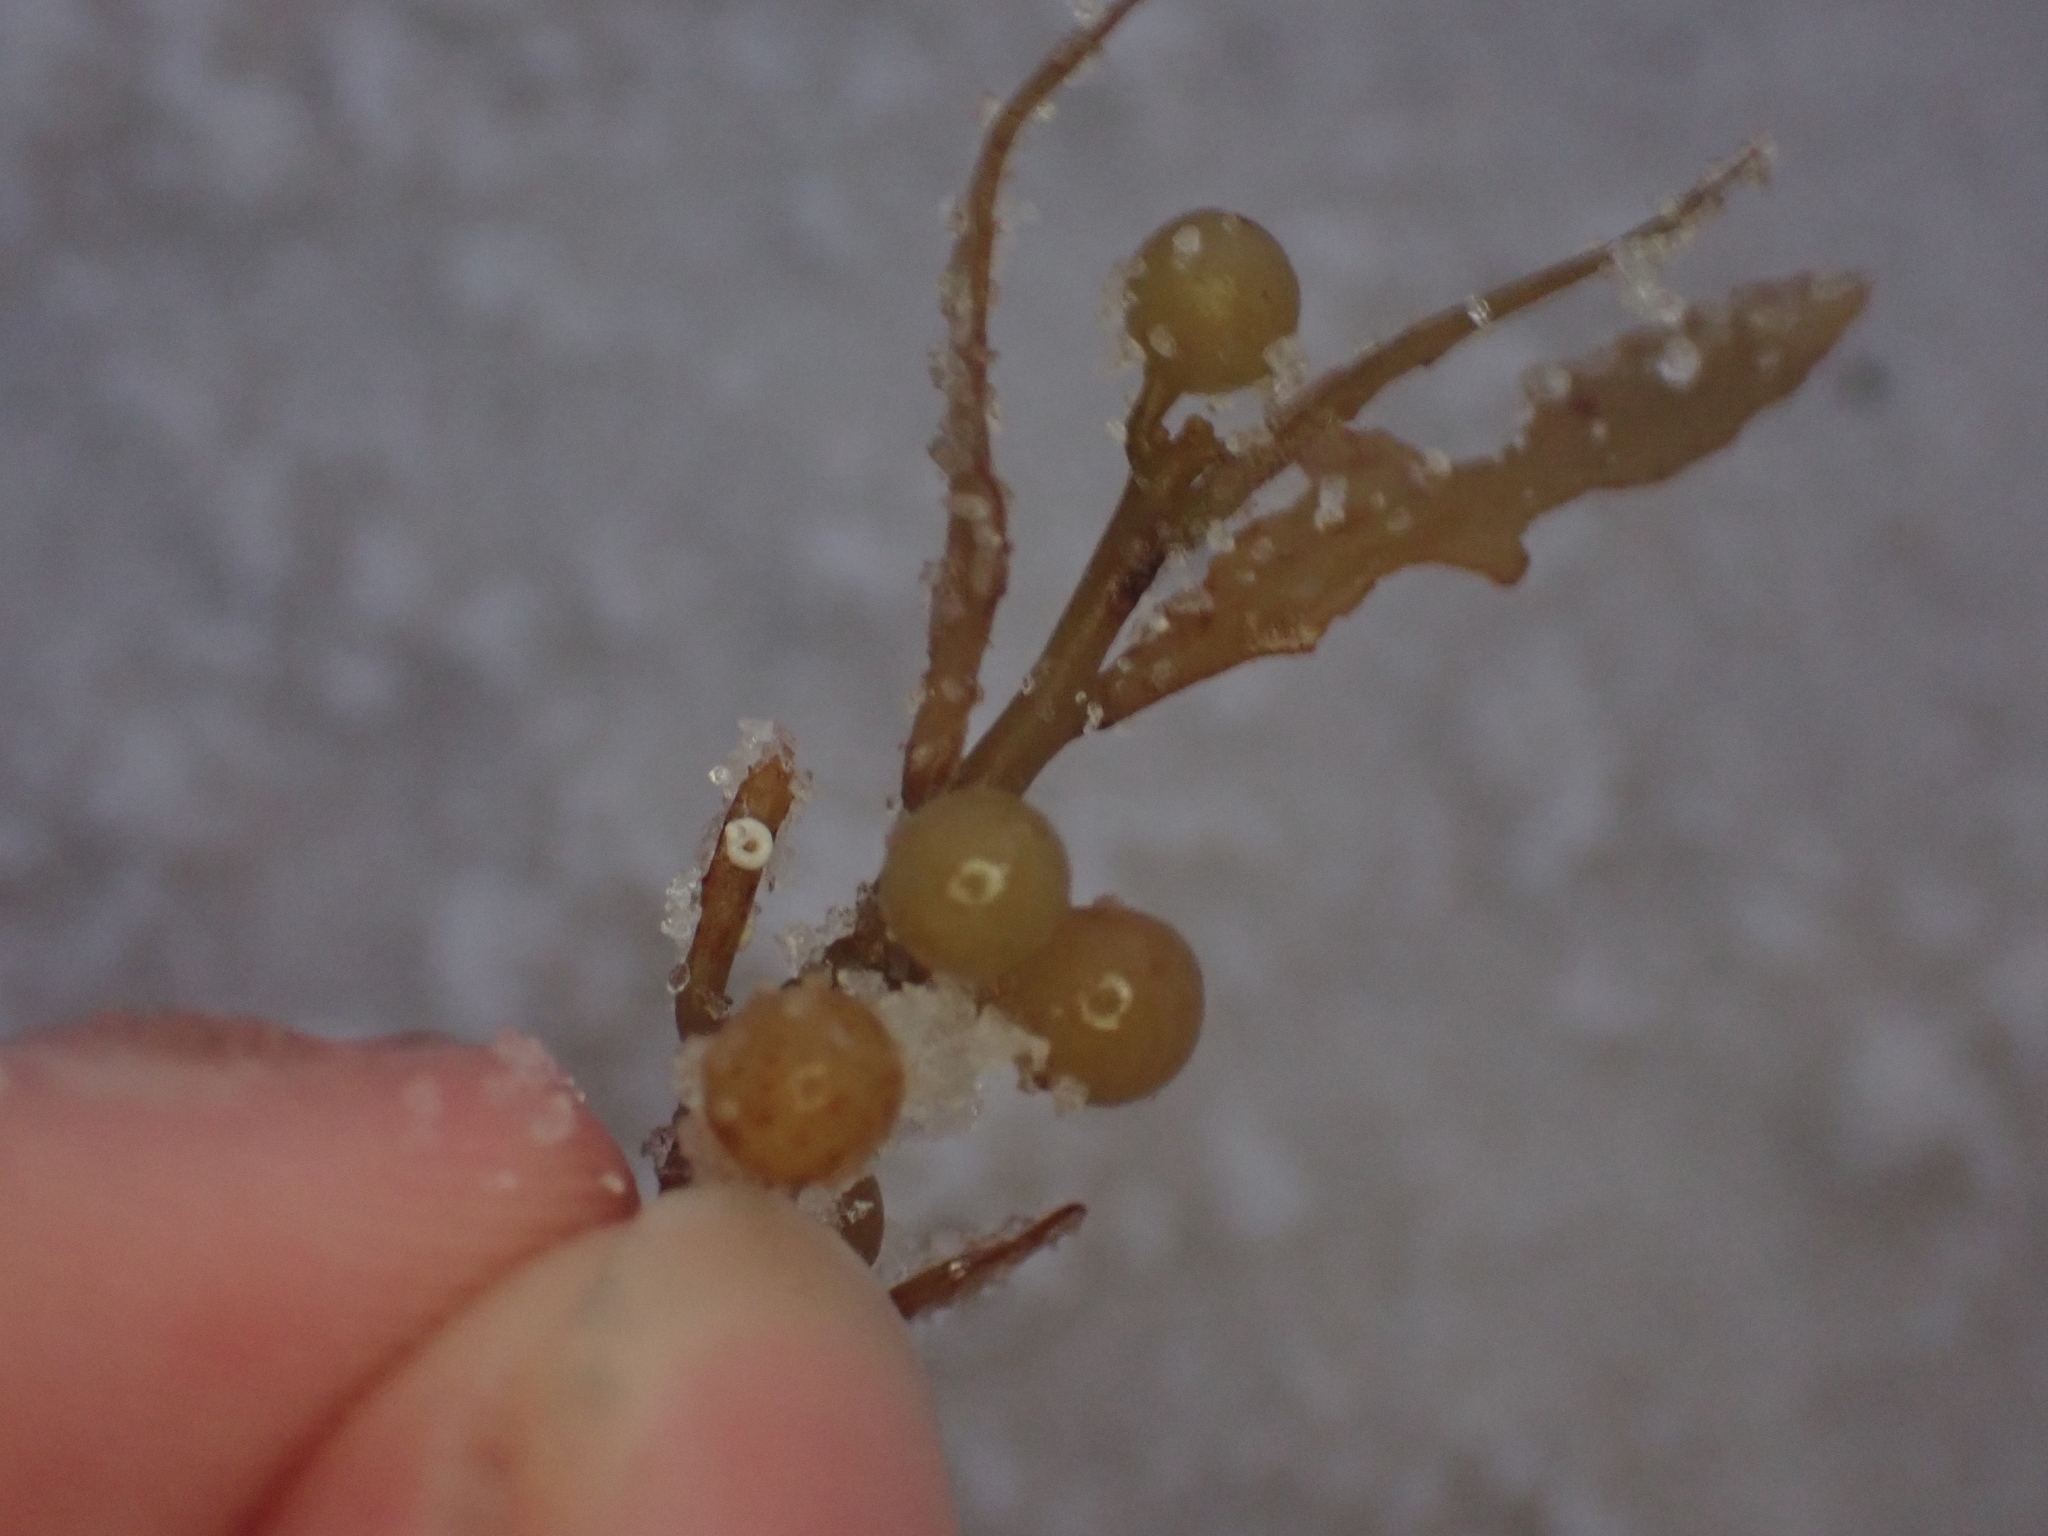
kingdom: Chromista
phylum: Ochrophyta
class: Phaeophyceae
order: Fucales
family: Sargassaceae
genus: Sargassum
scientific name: Sargassum fluitans
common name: Sargassum seaweed
